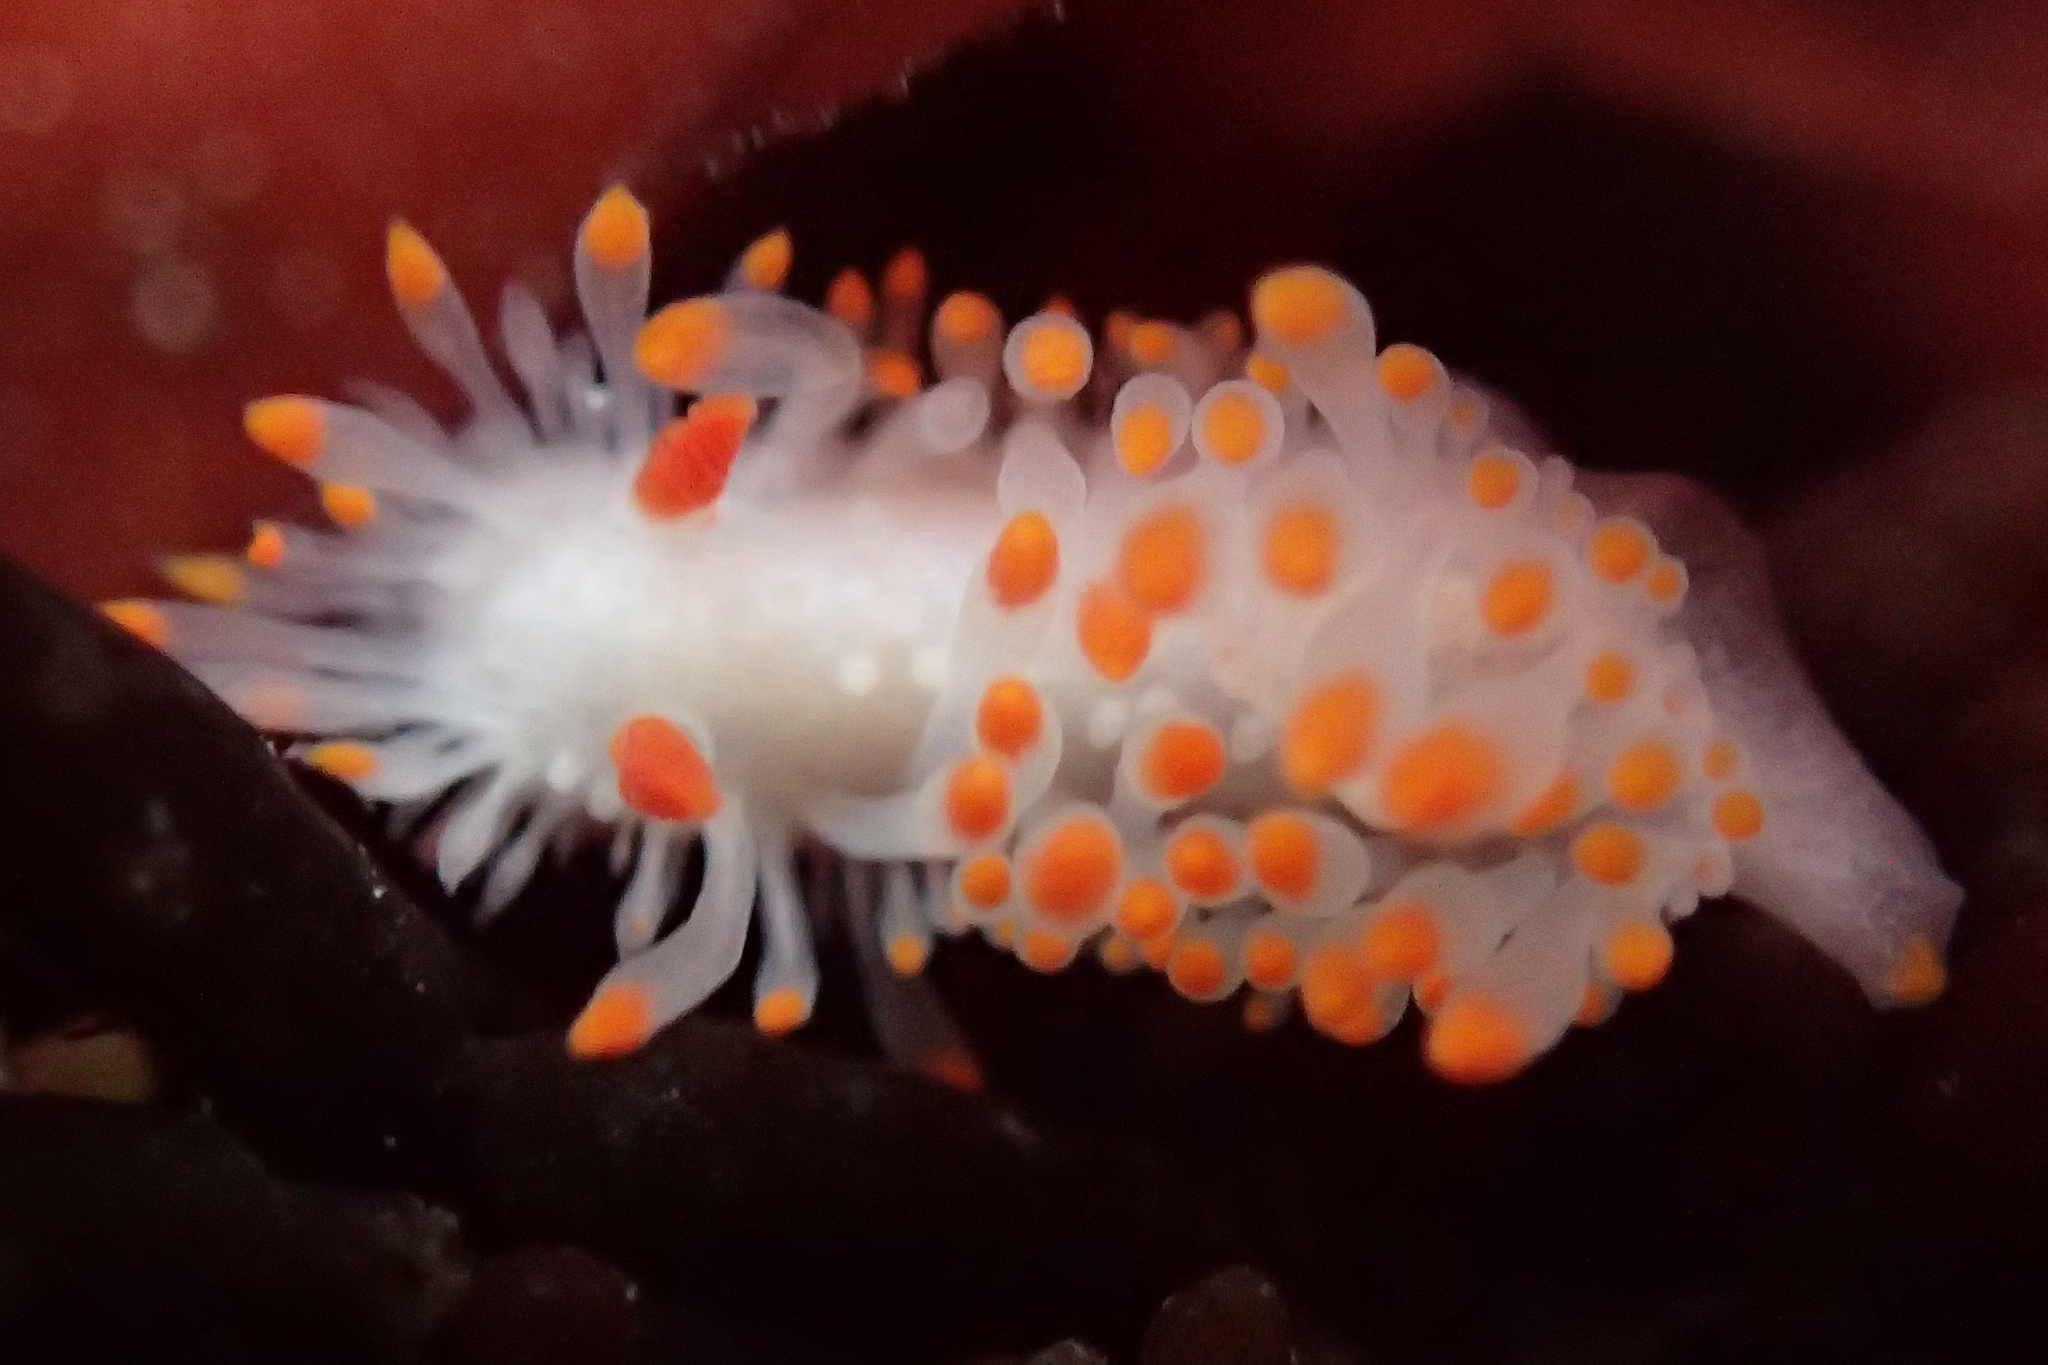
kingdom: Animalia
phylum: Mollusca
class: Gastropoda
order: Nudibranchia
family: Polyceridae
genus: Limacia
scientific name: Limacia cockerelli
